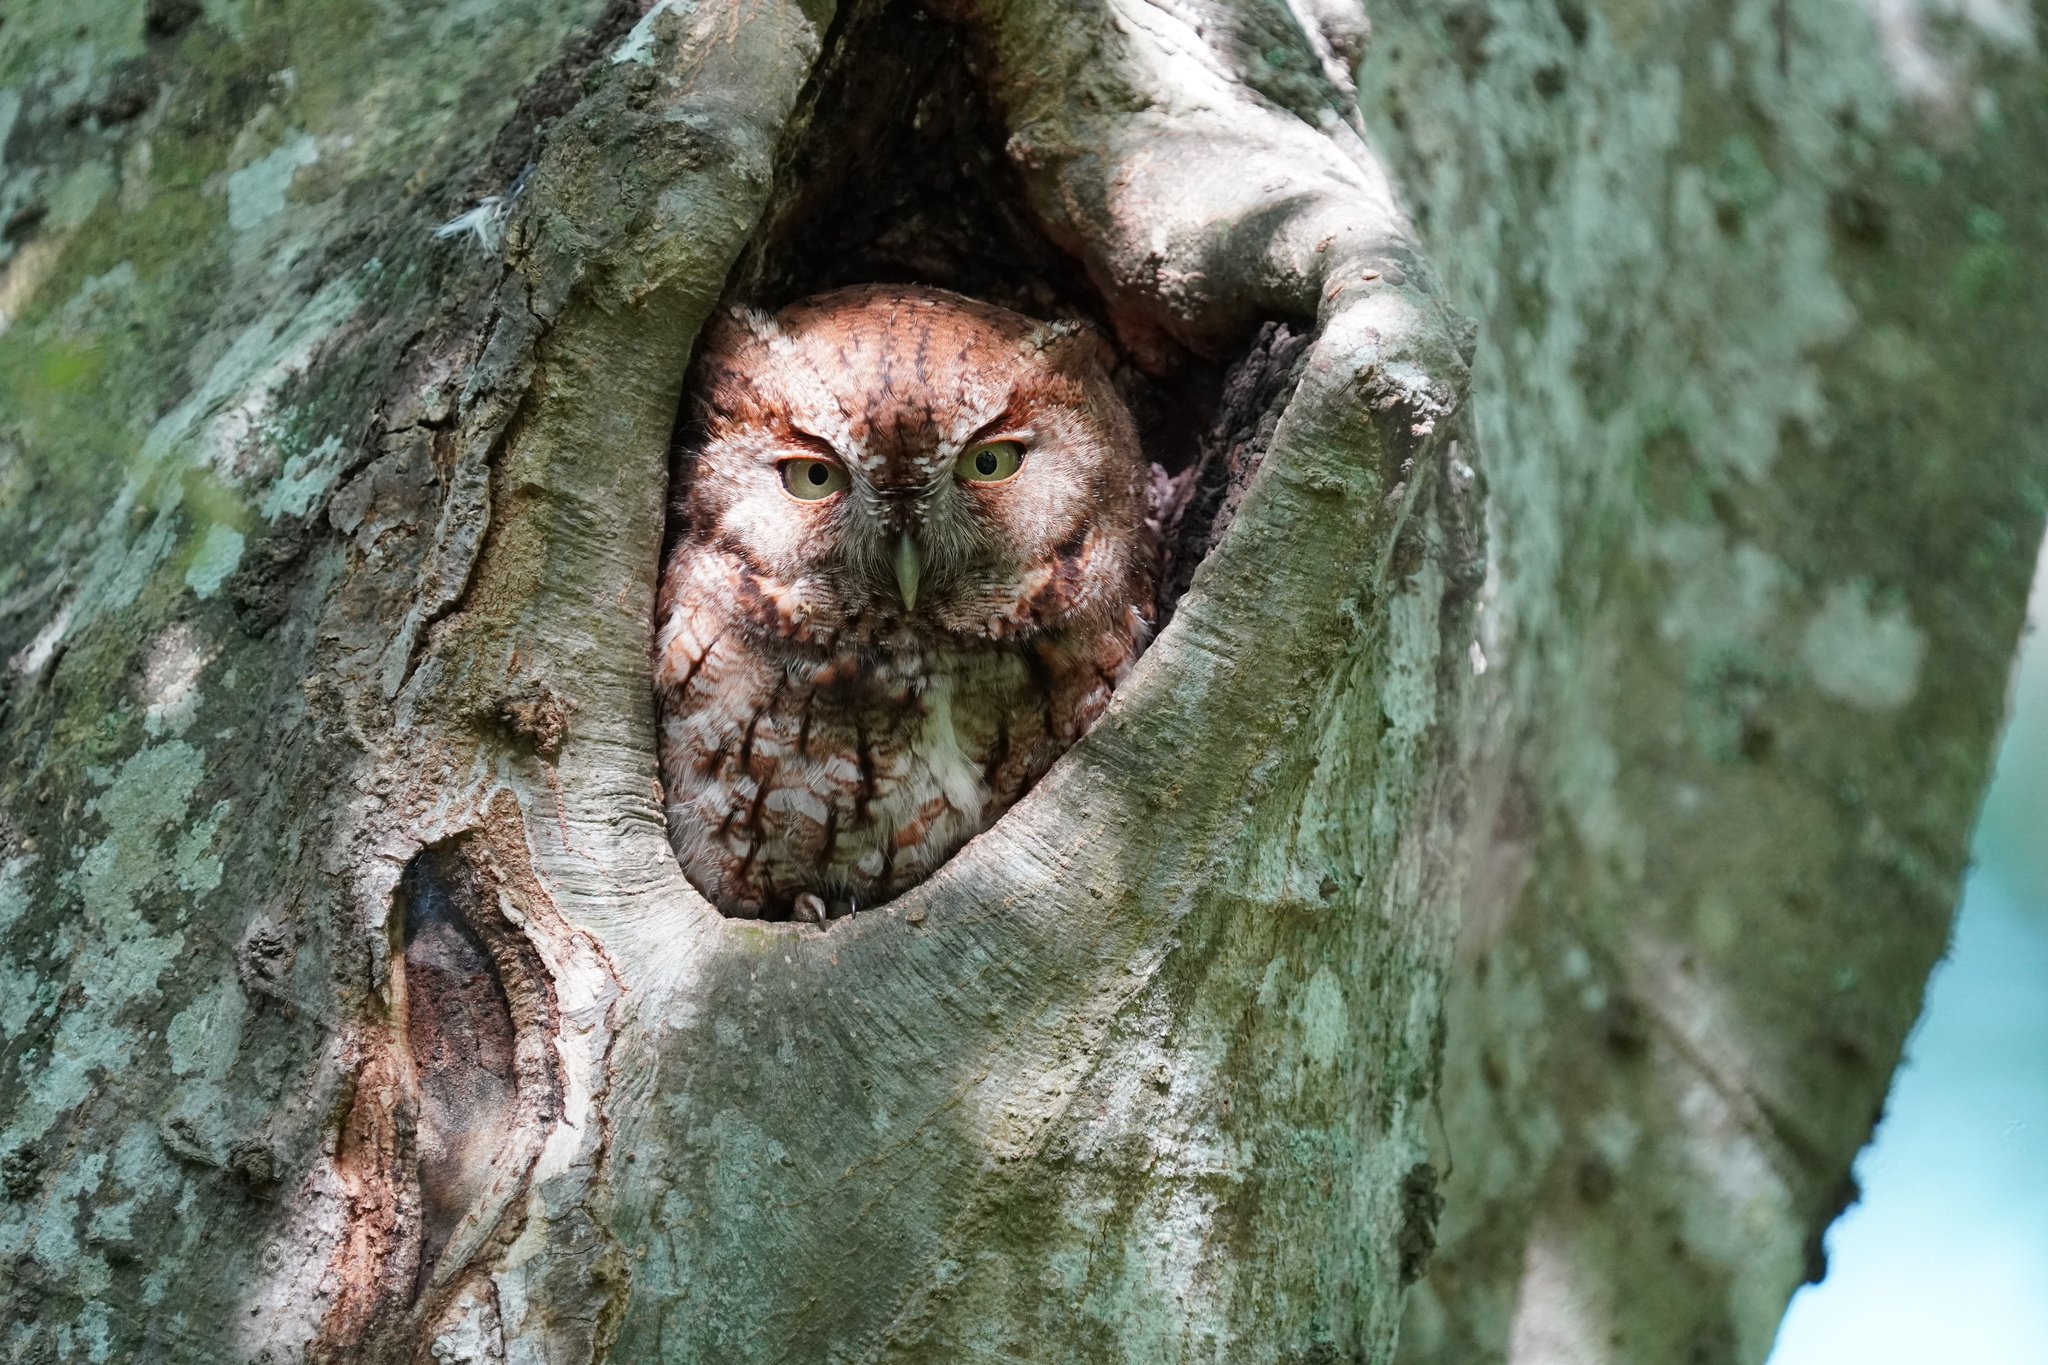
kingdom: Animalia
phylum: Chordata
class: Aves
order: Strigiformes
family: Strigidae
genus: Megascops
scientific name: Megascops asio
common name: Eastern screech-owl
